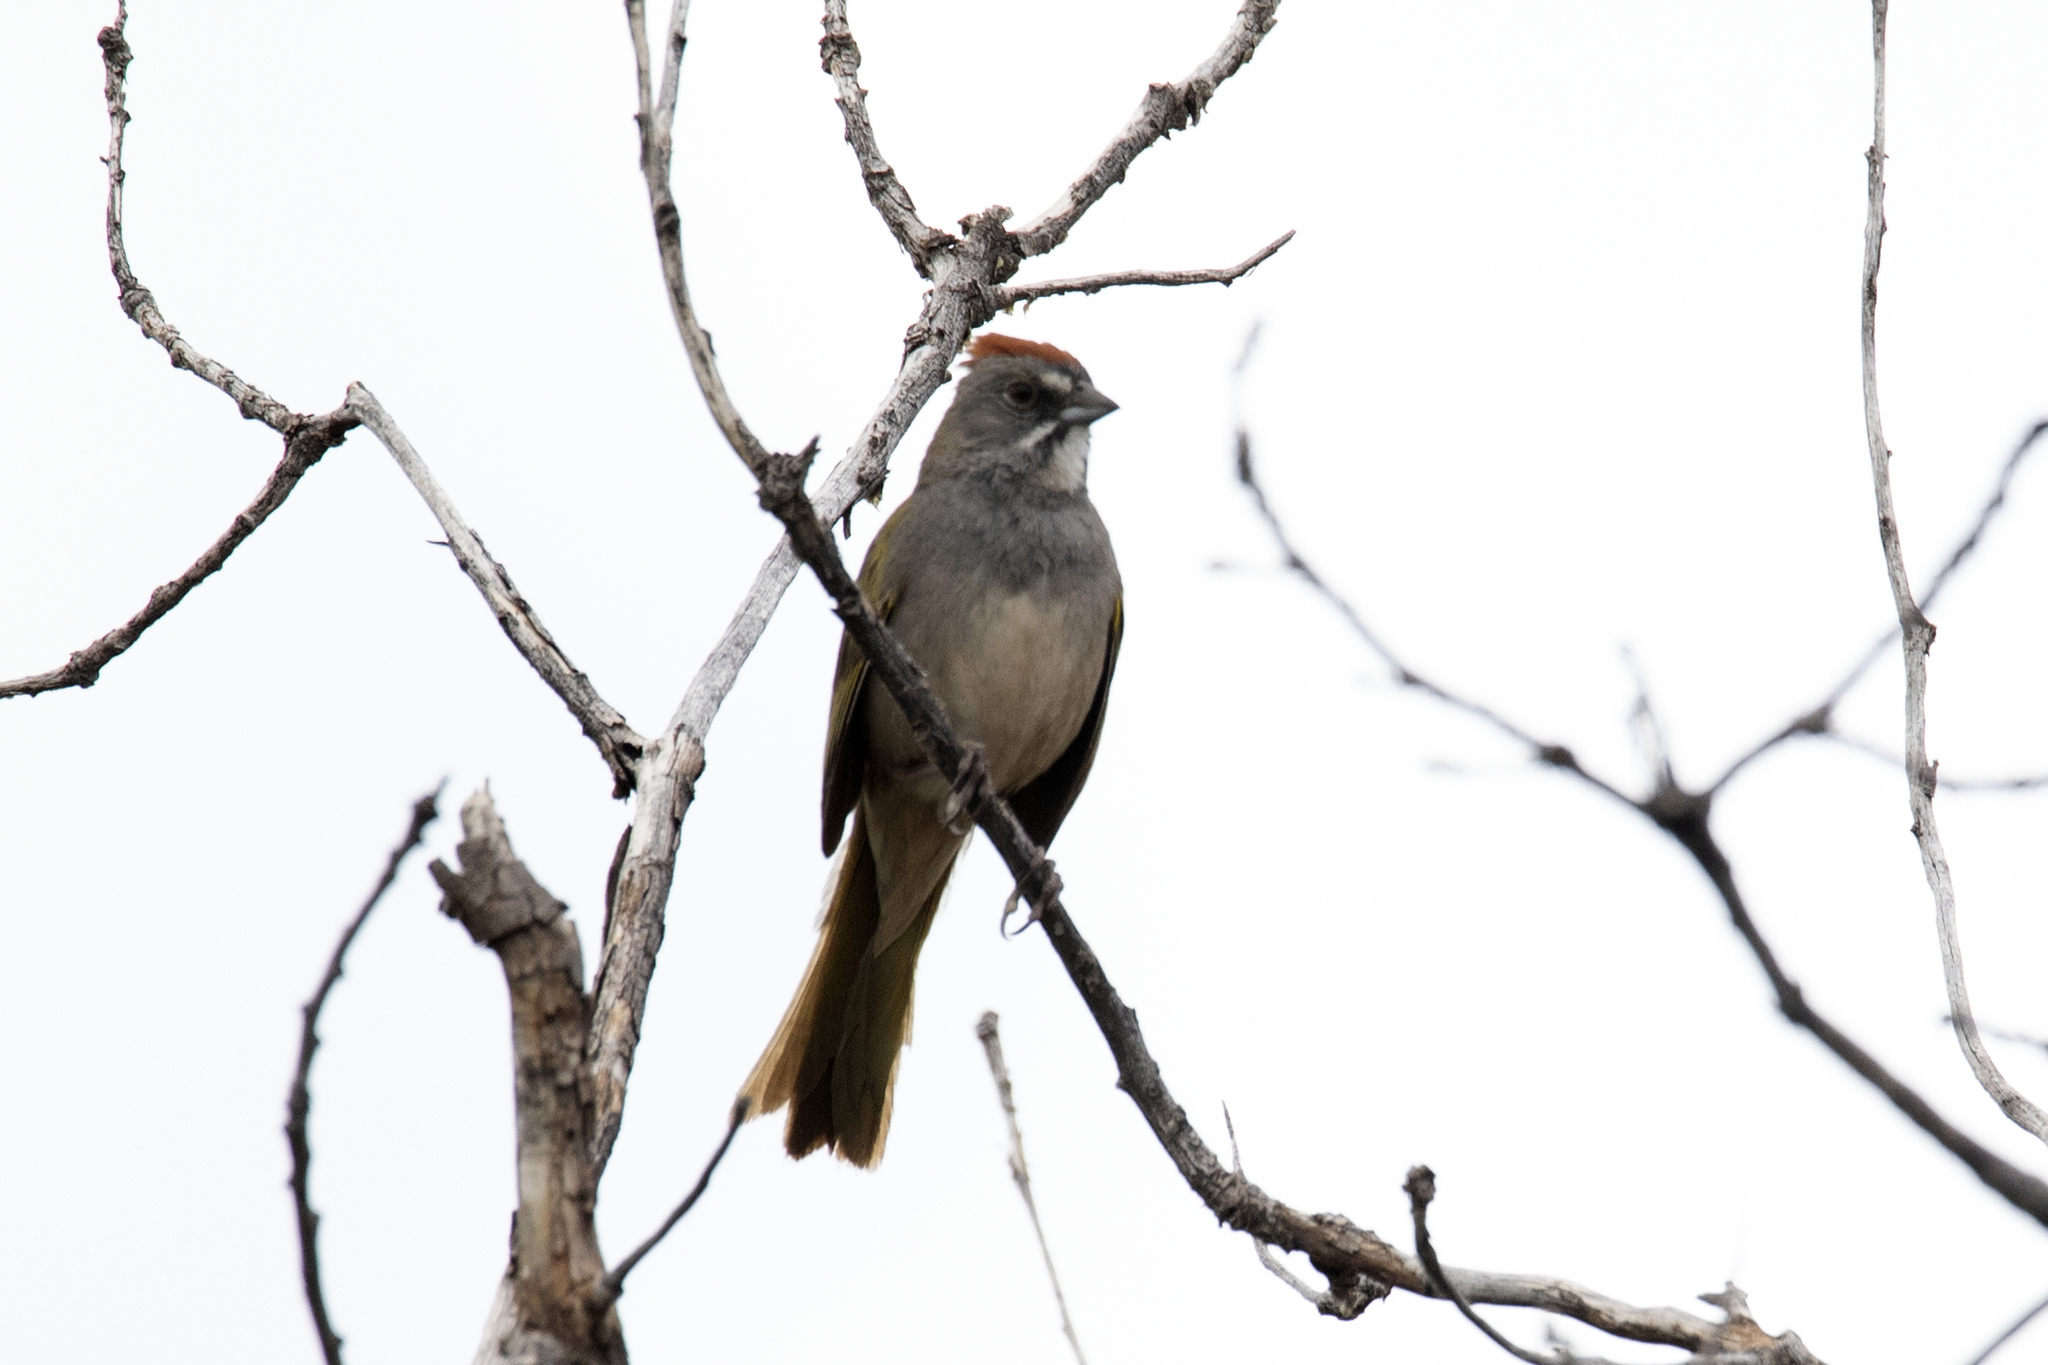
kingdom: Animalia
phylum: Chordata
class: Aves
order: Passeriformes
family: Passerellidae
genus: Pipilo
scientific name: Pipilo chlorurus
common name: Green-tailed towhee
